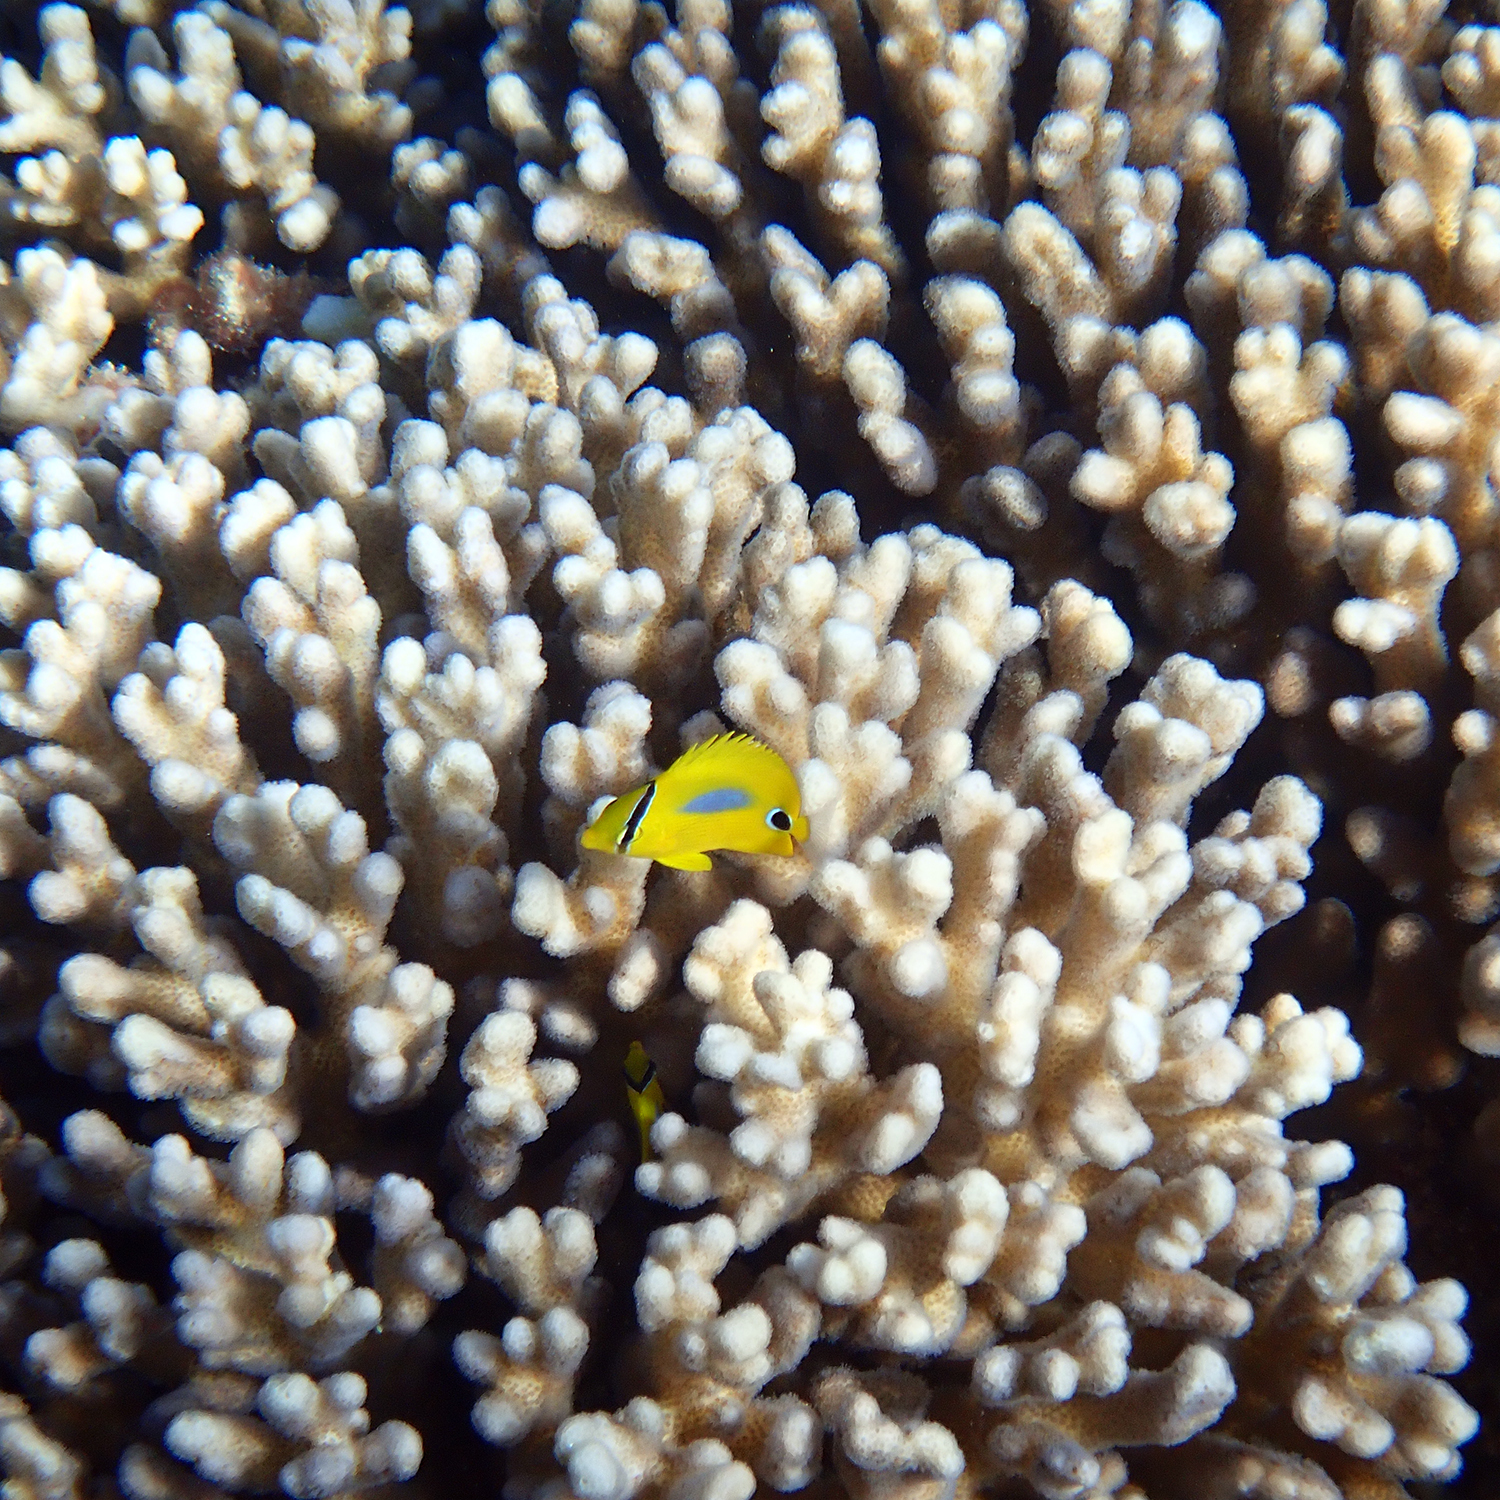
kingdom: Animalia
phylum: Chordata
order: Perciformes
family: Chaetodontidae
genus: Chaetodon
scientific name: Chaetodon plebeius
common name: Bluespot butterflyfish
